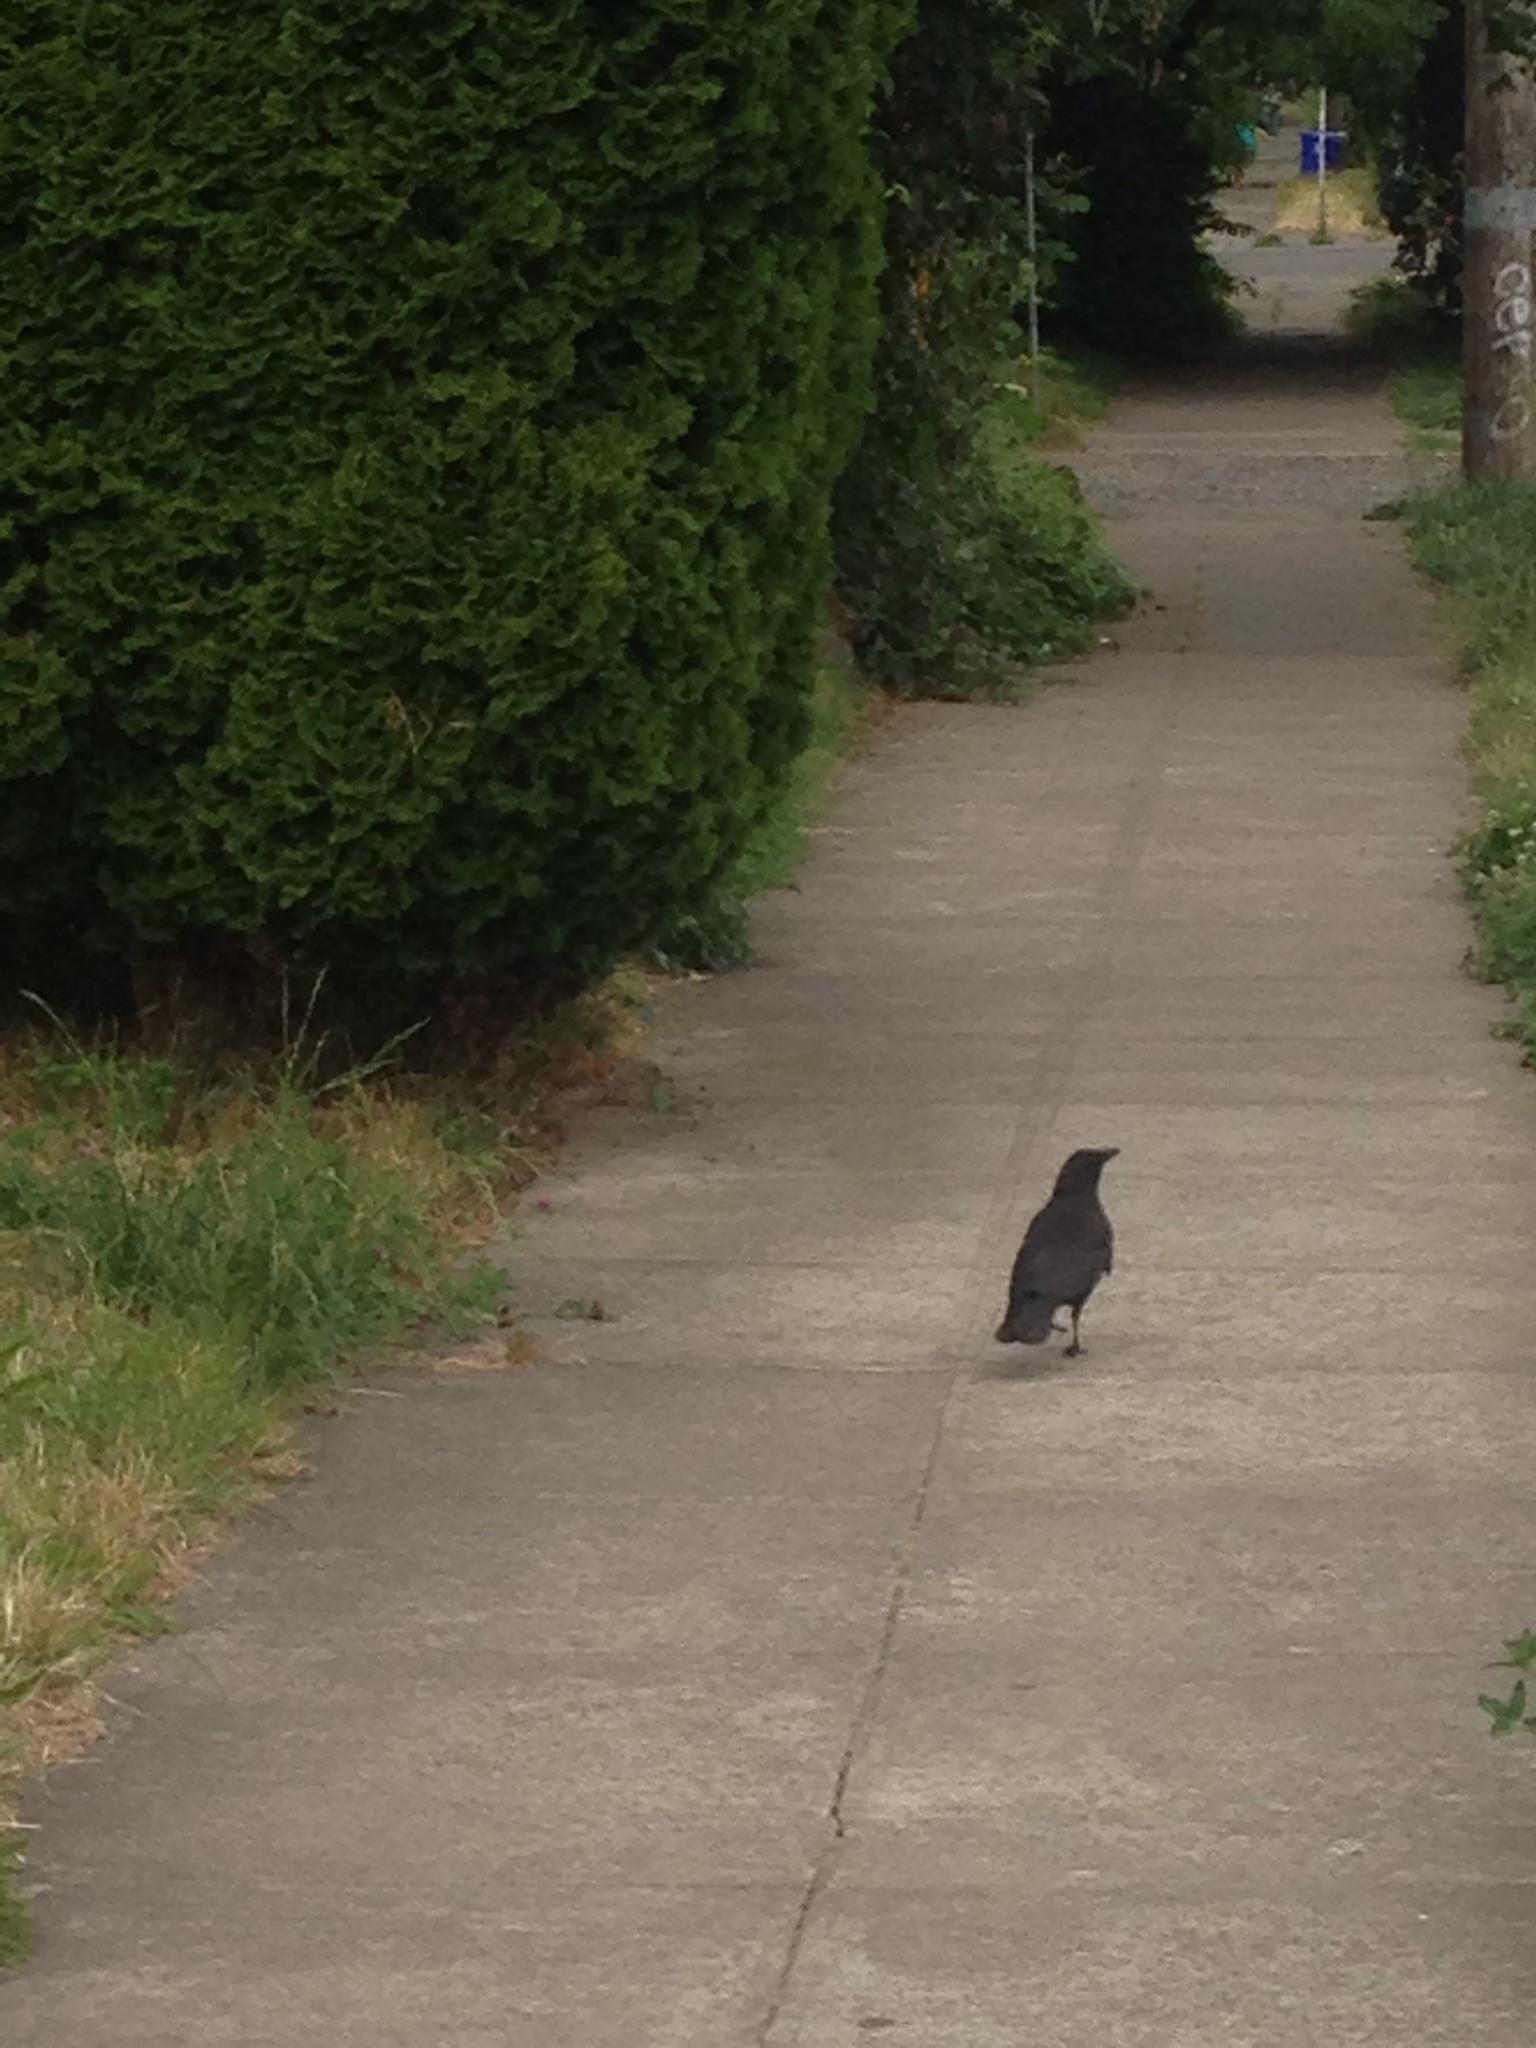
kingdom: Animalia
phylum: Chordata
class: Aves
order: Passeriformes
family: Corvidae
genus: Corvus
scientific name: Corvus brachyrhynchos
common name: American crow
